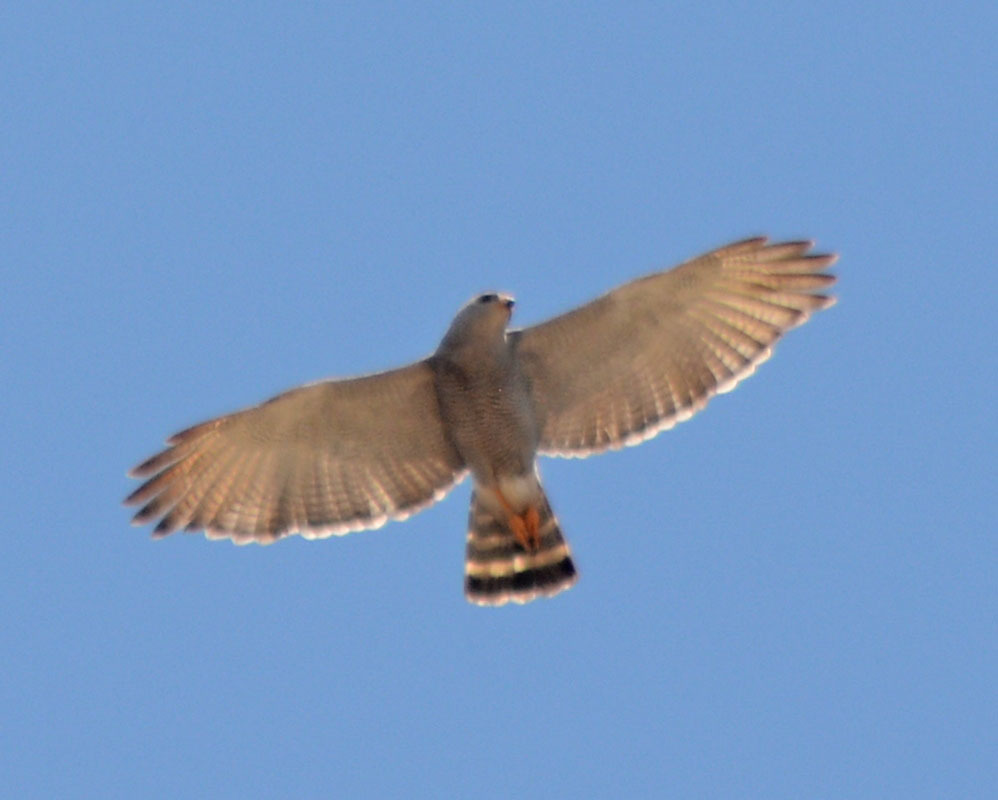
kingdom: Animalia
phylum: Chordata
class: Aves
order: Accipitriformes
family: Accipitridae
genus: Buteo
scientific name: Buteo nitidus
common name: Grey-lined hawk
